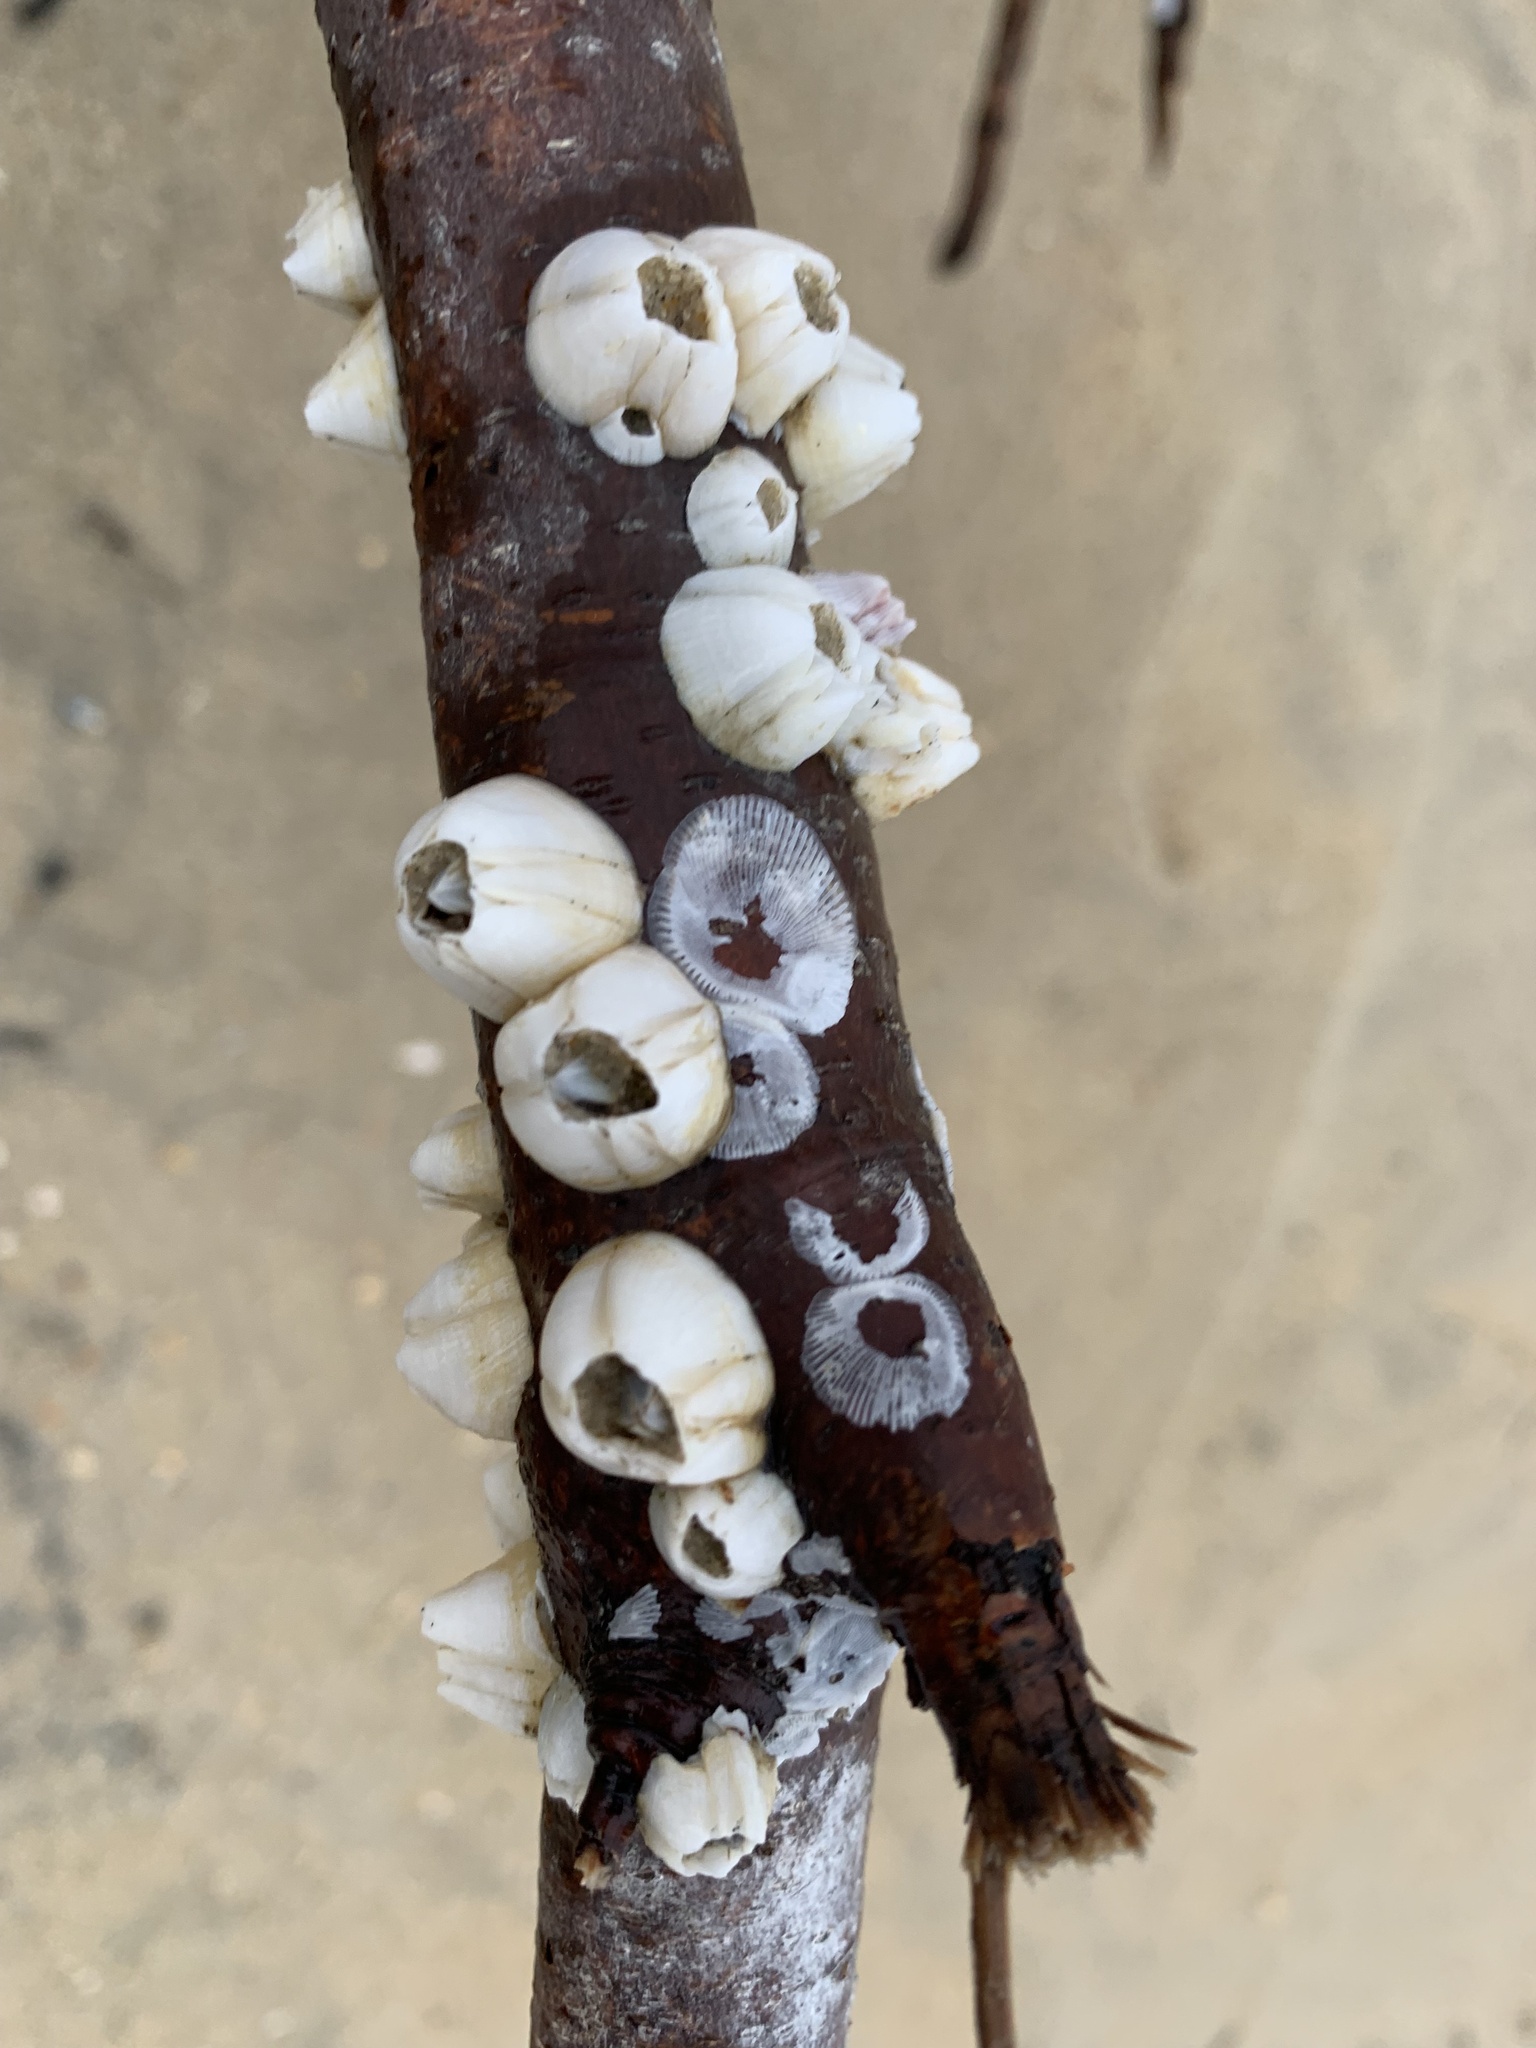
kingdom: Animalia
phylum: Arthropoda
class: Maxillopoda
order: Sessilia
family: Balanidae
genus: Amphibalanus
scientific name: Amphibalanus eburneus
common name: Ivory barnacle
